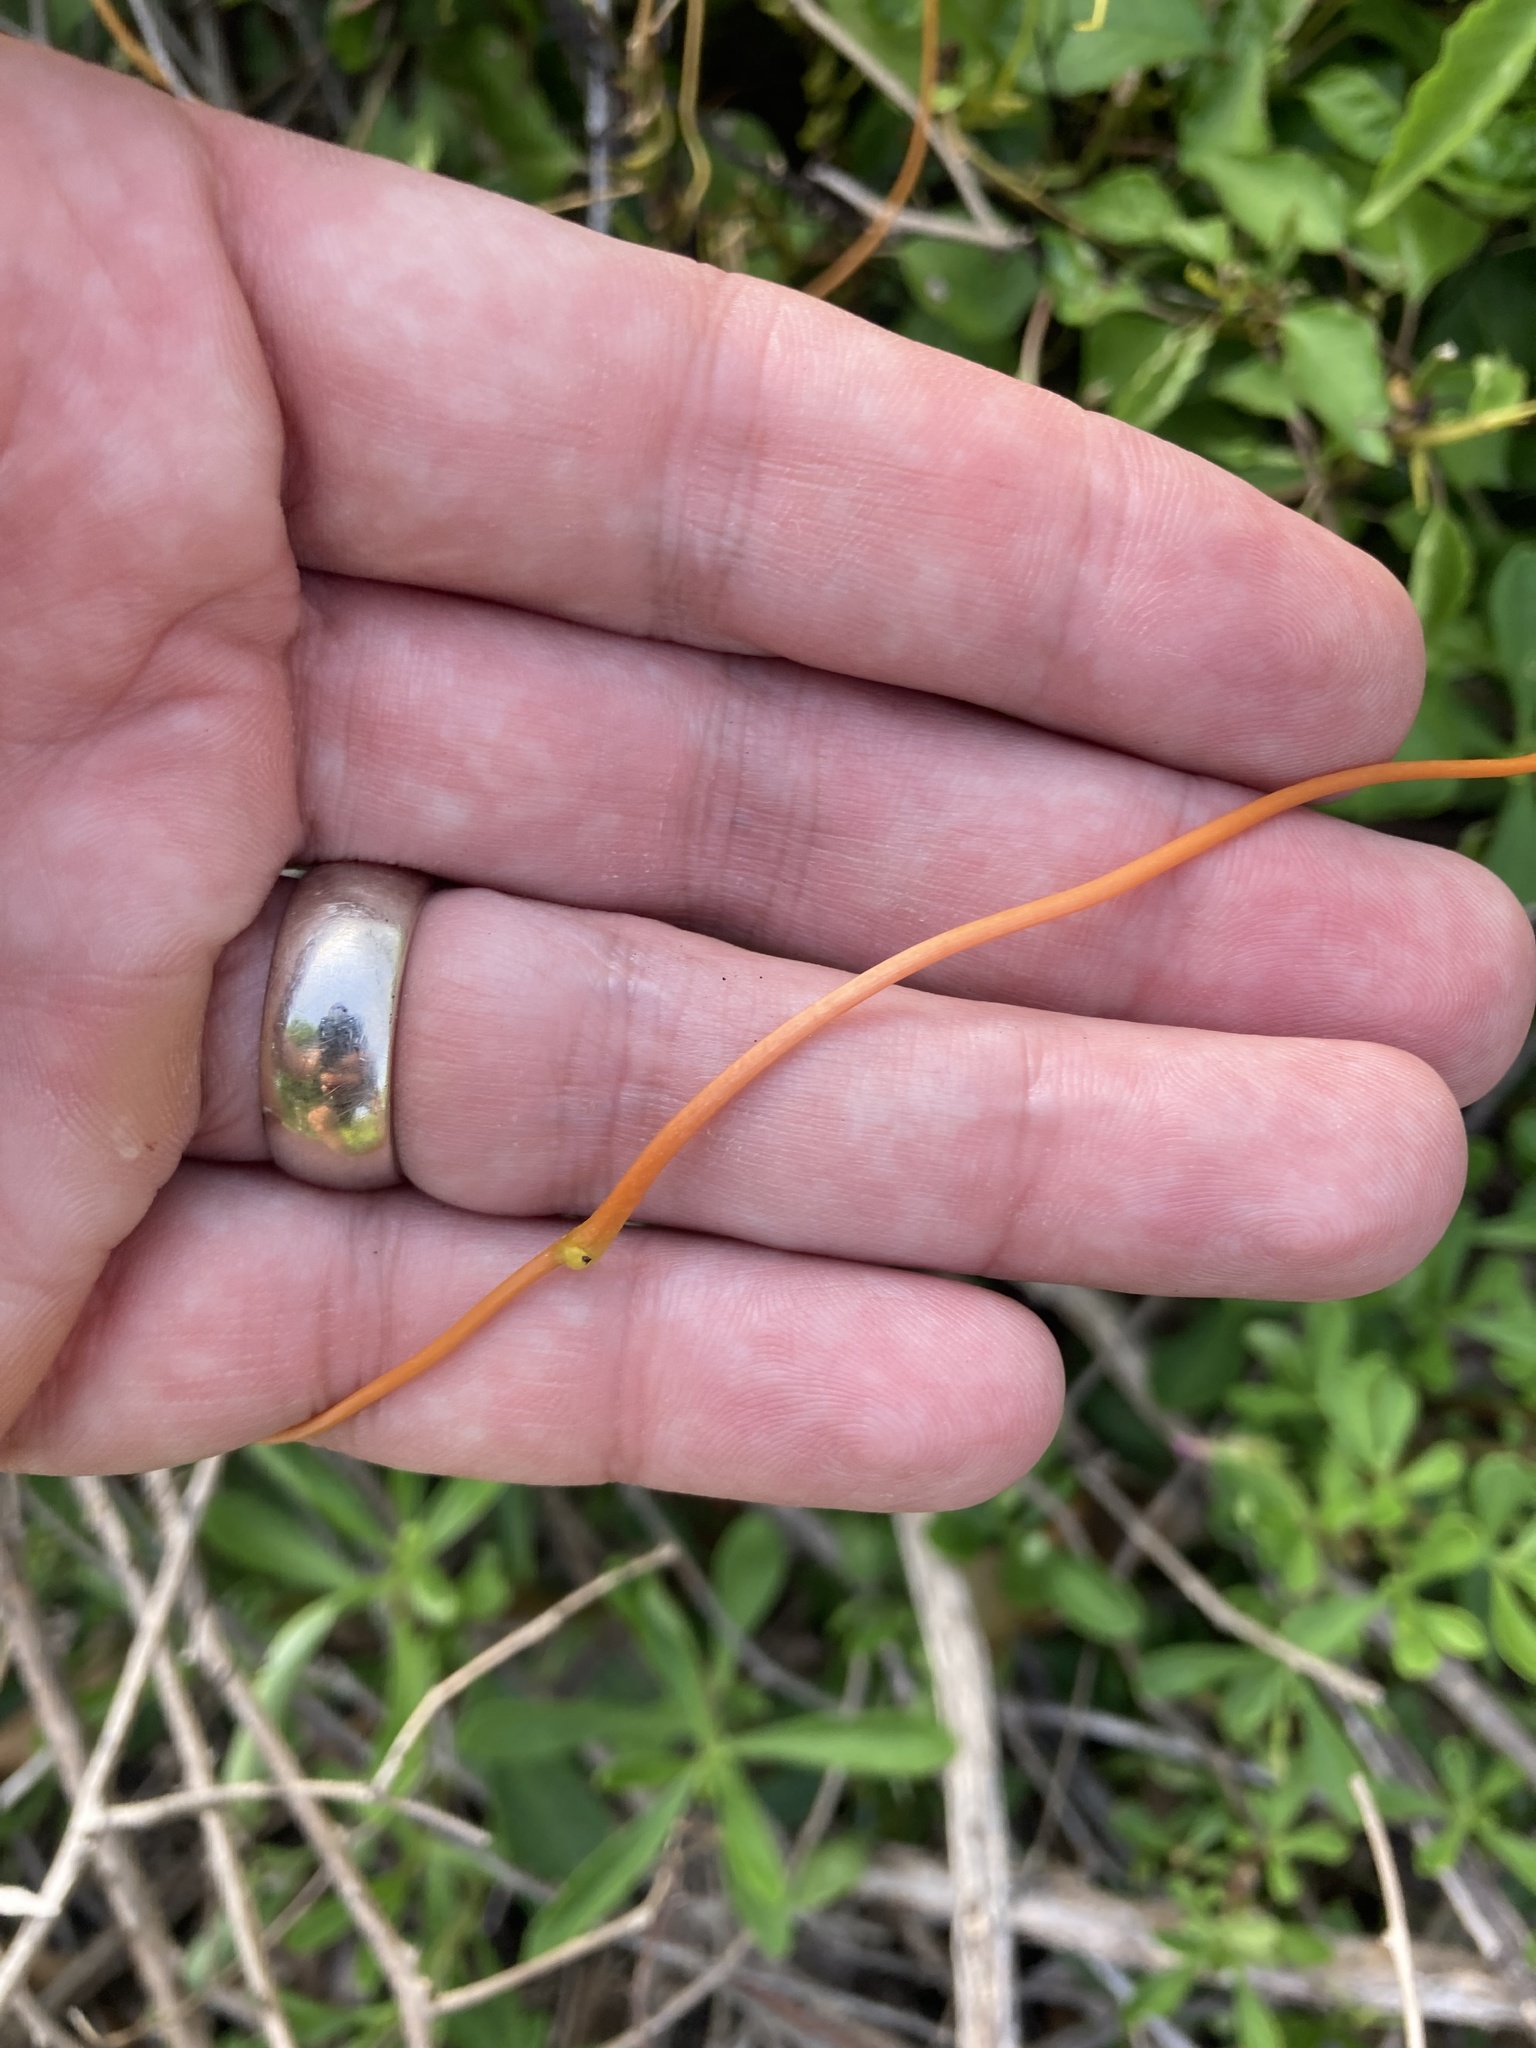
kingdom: Plantae
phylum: Tracheophyta
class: Magnoliopsida
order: Laurales
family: Lauraceae
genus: Cassytha
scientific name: Cassytha filiformis
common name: Dodder-laurel
